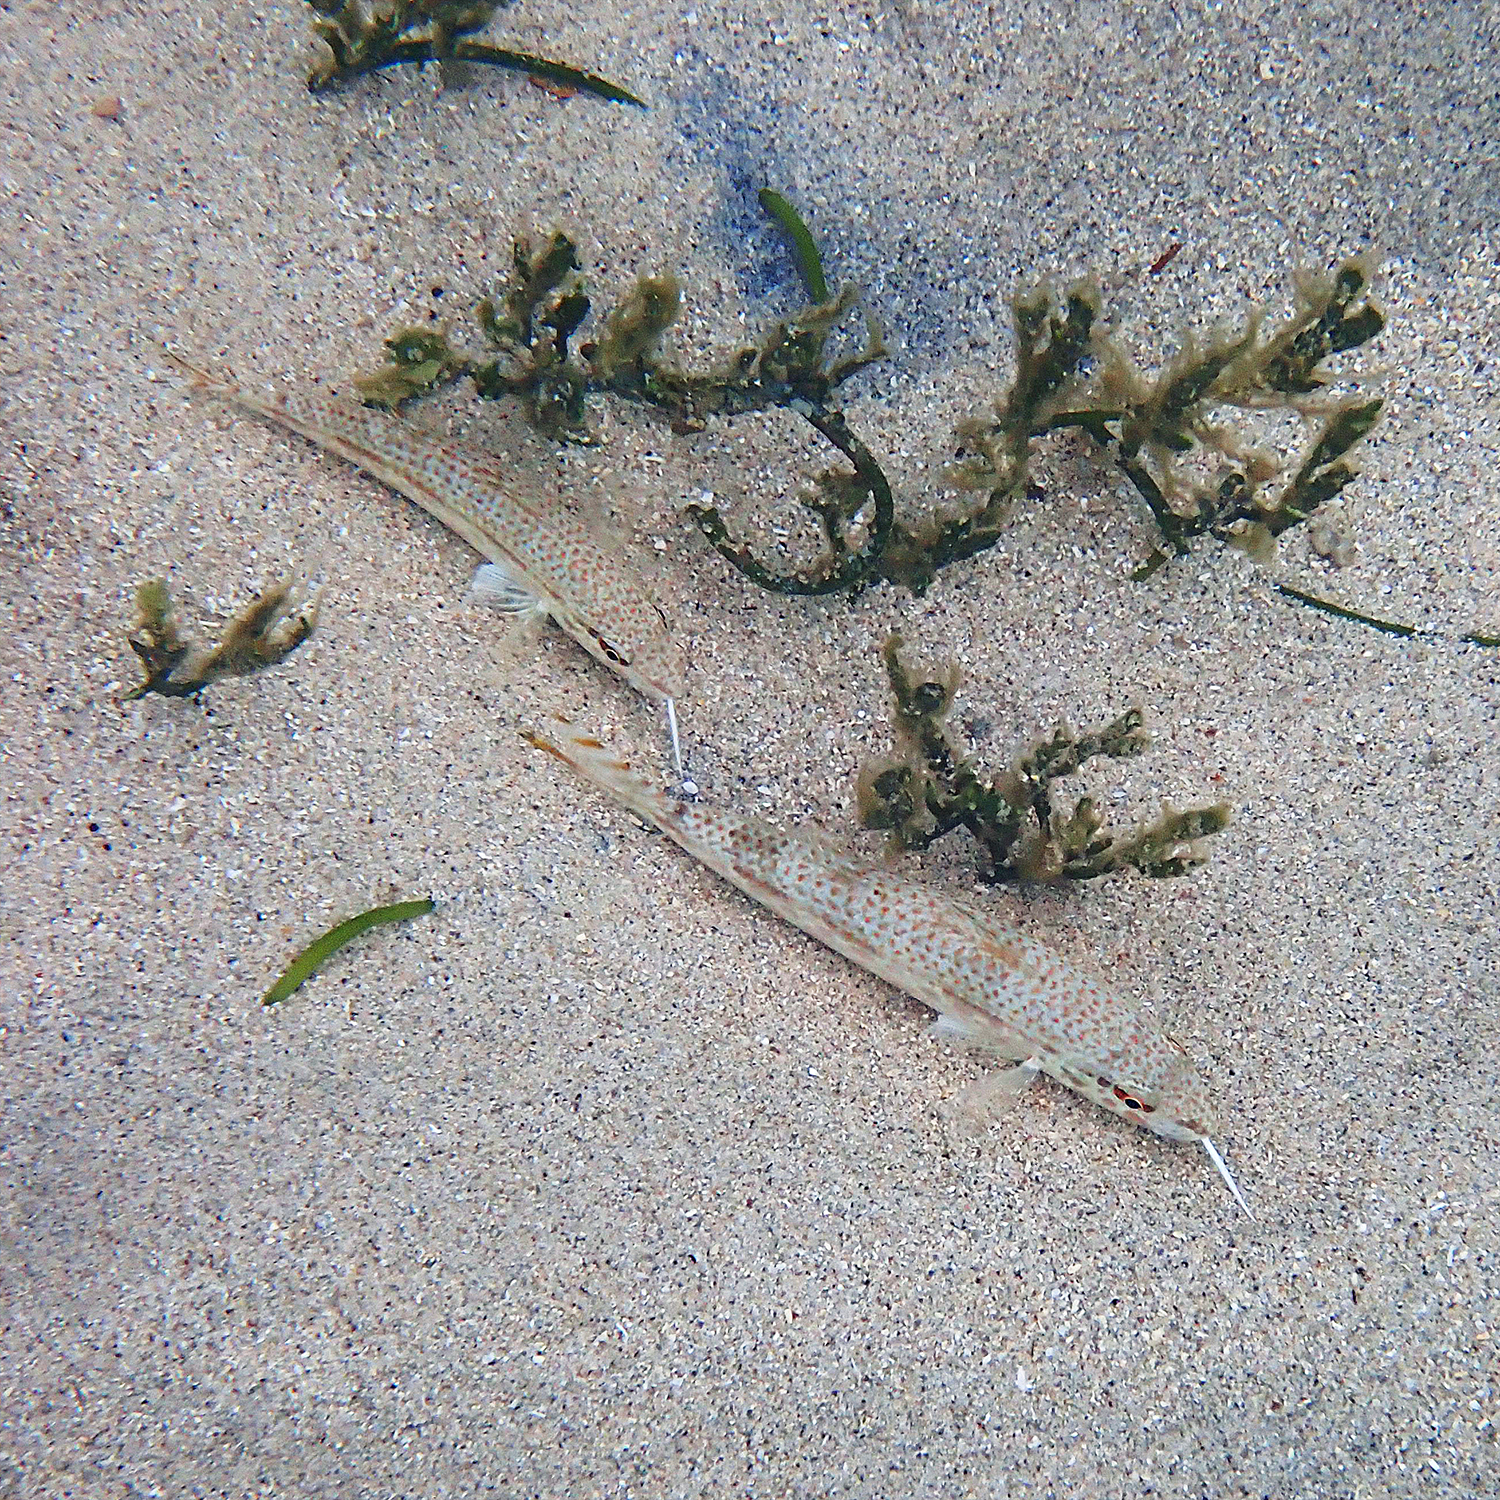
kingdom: Animalia
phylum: Chordata
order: Perciformes
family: Mullidae
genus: Upeneus
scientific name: Upeneus francisi
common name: Francis' goatfish
